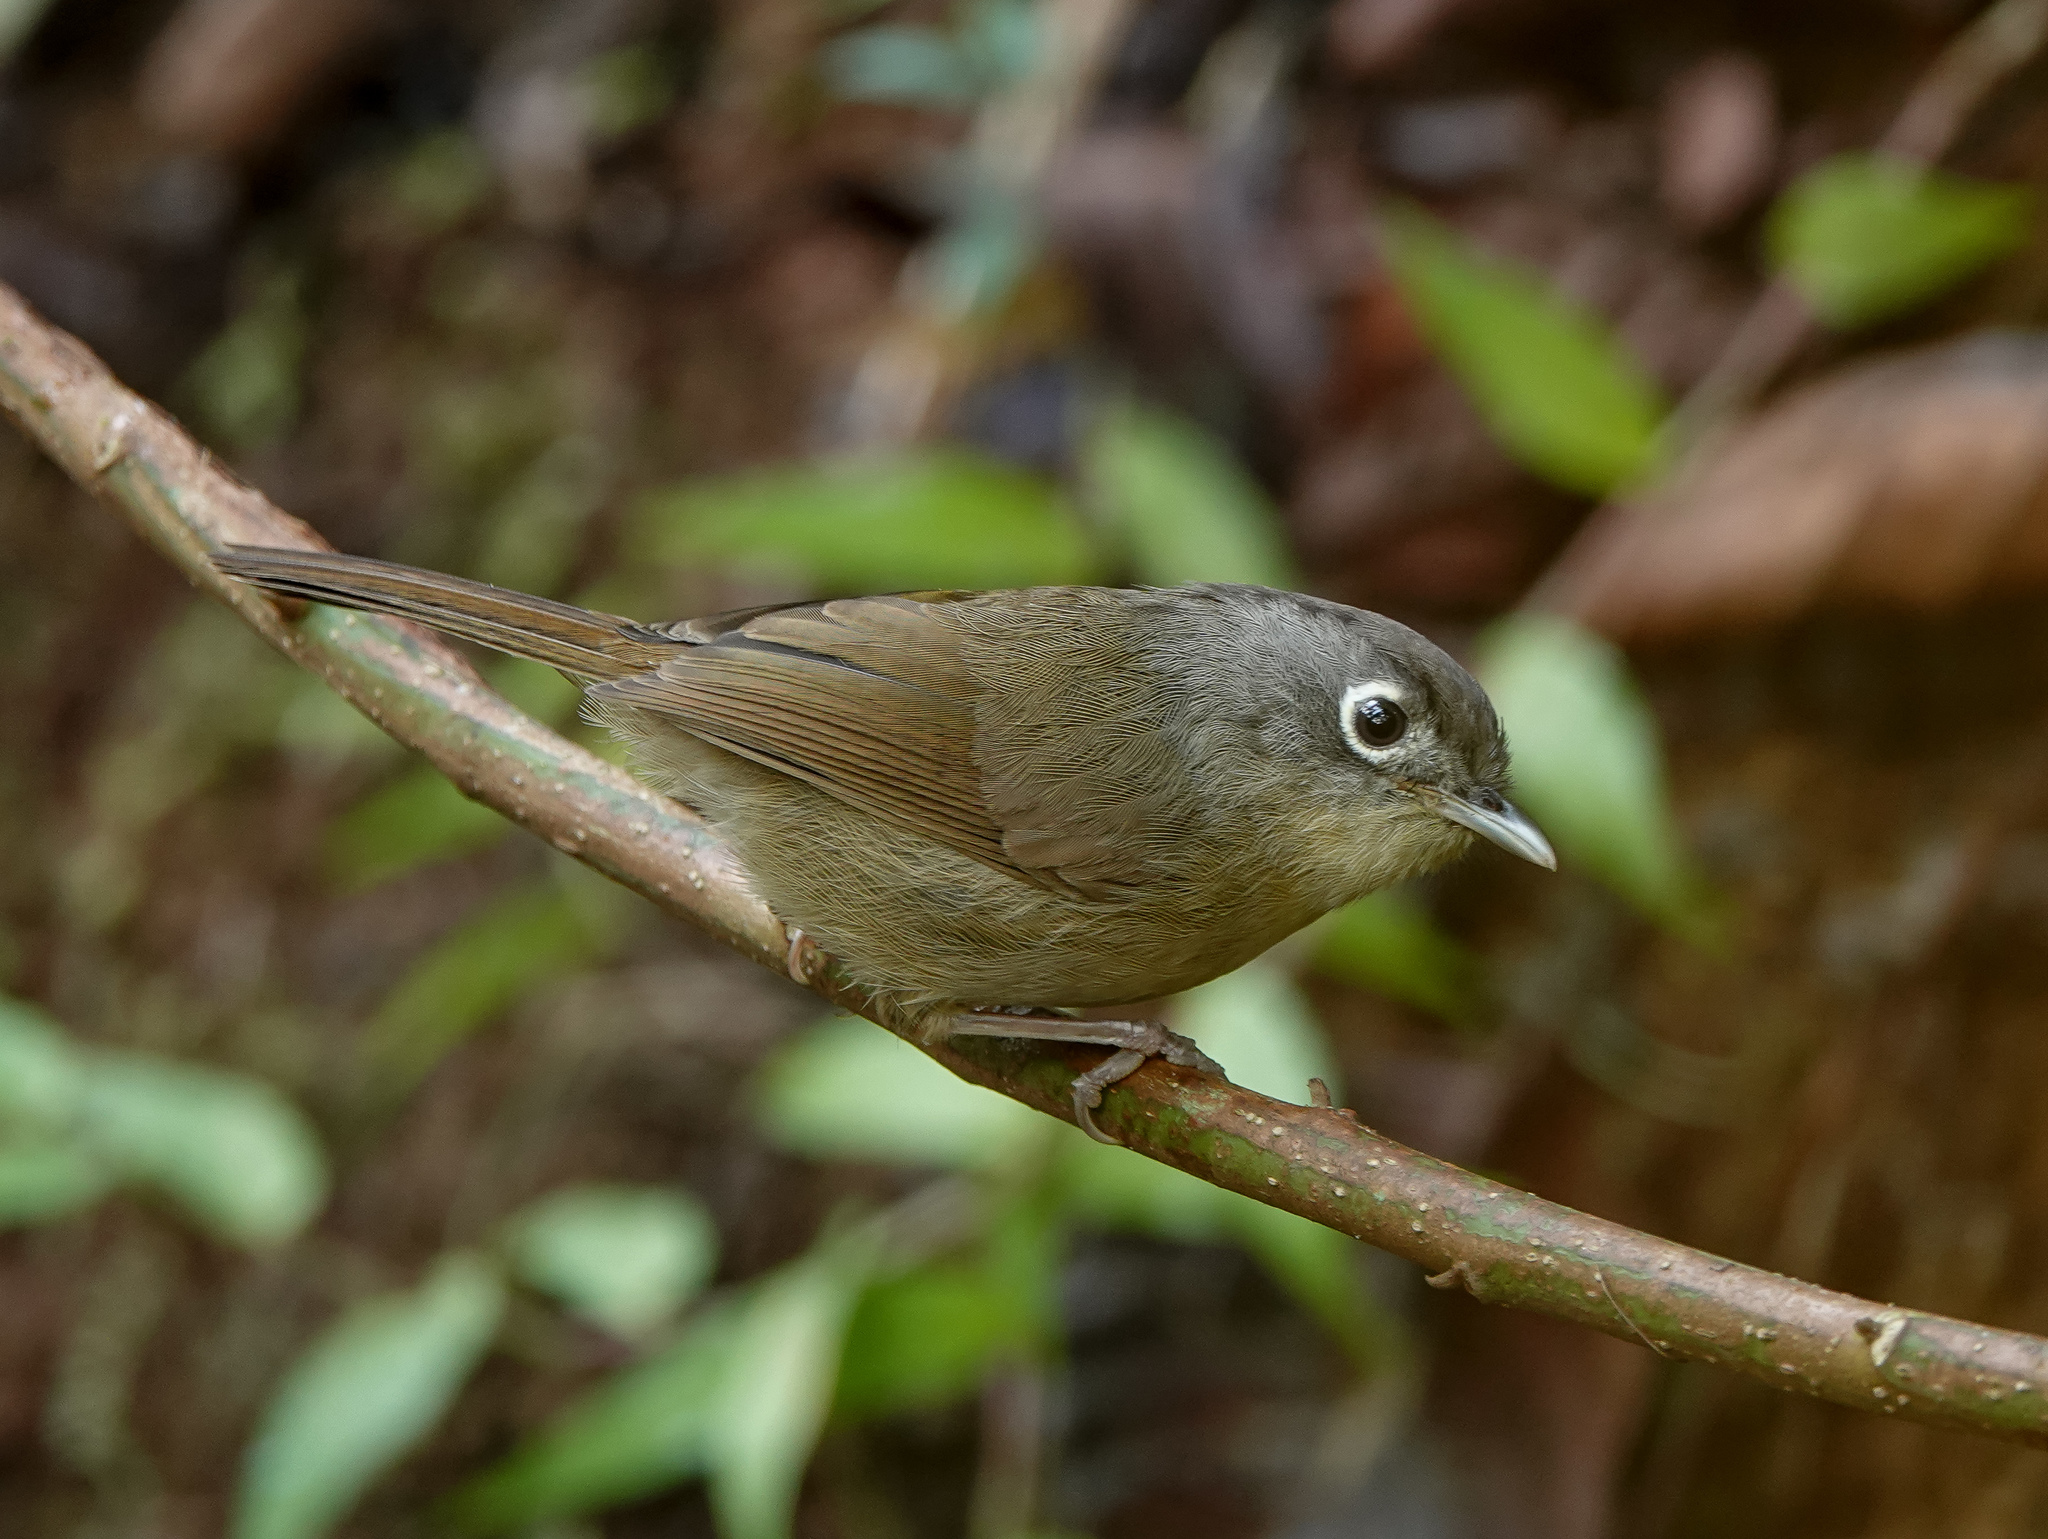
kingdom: Animalia
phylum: Chordata
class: Aves
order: Passeriformes
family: Pellorneidae
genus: Alcippe
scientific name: Alcippe nipalensis
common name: Nepal fulvetta
